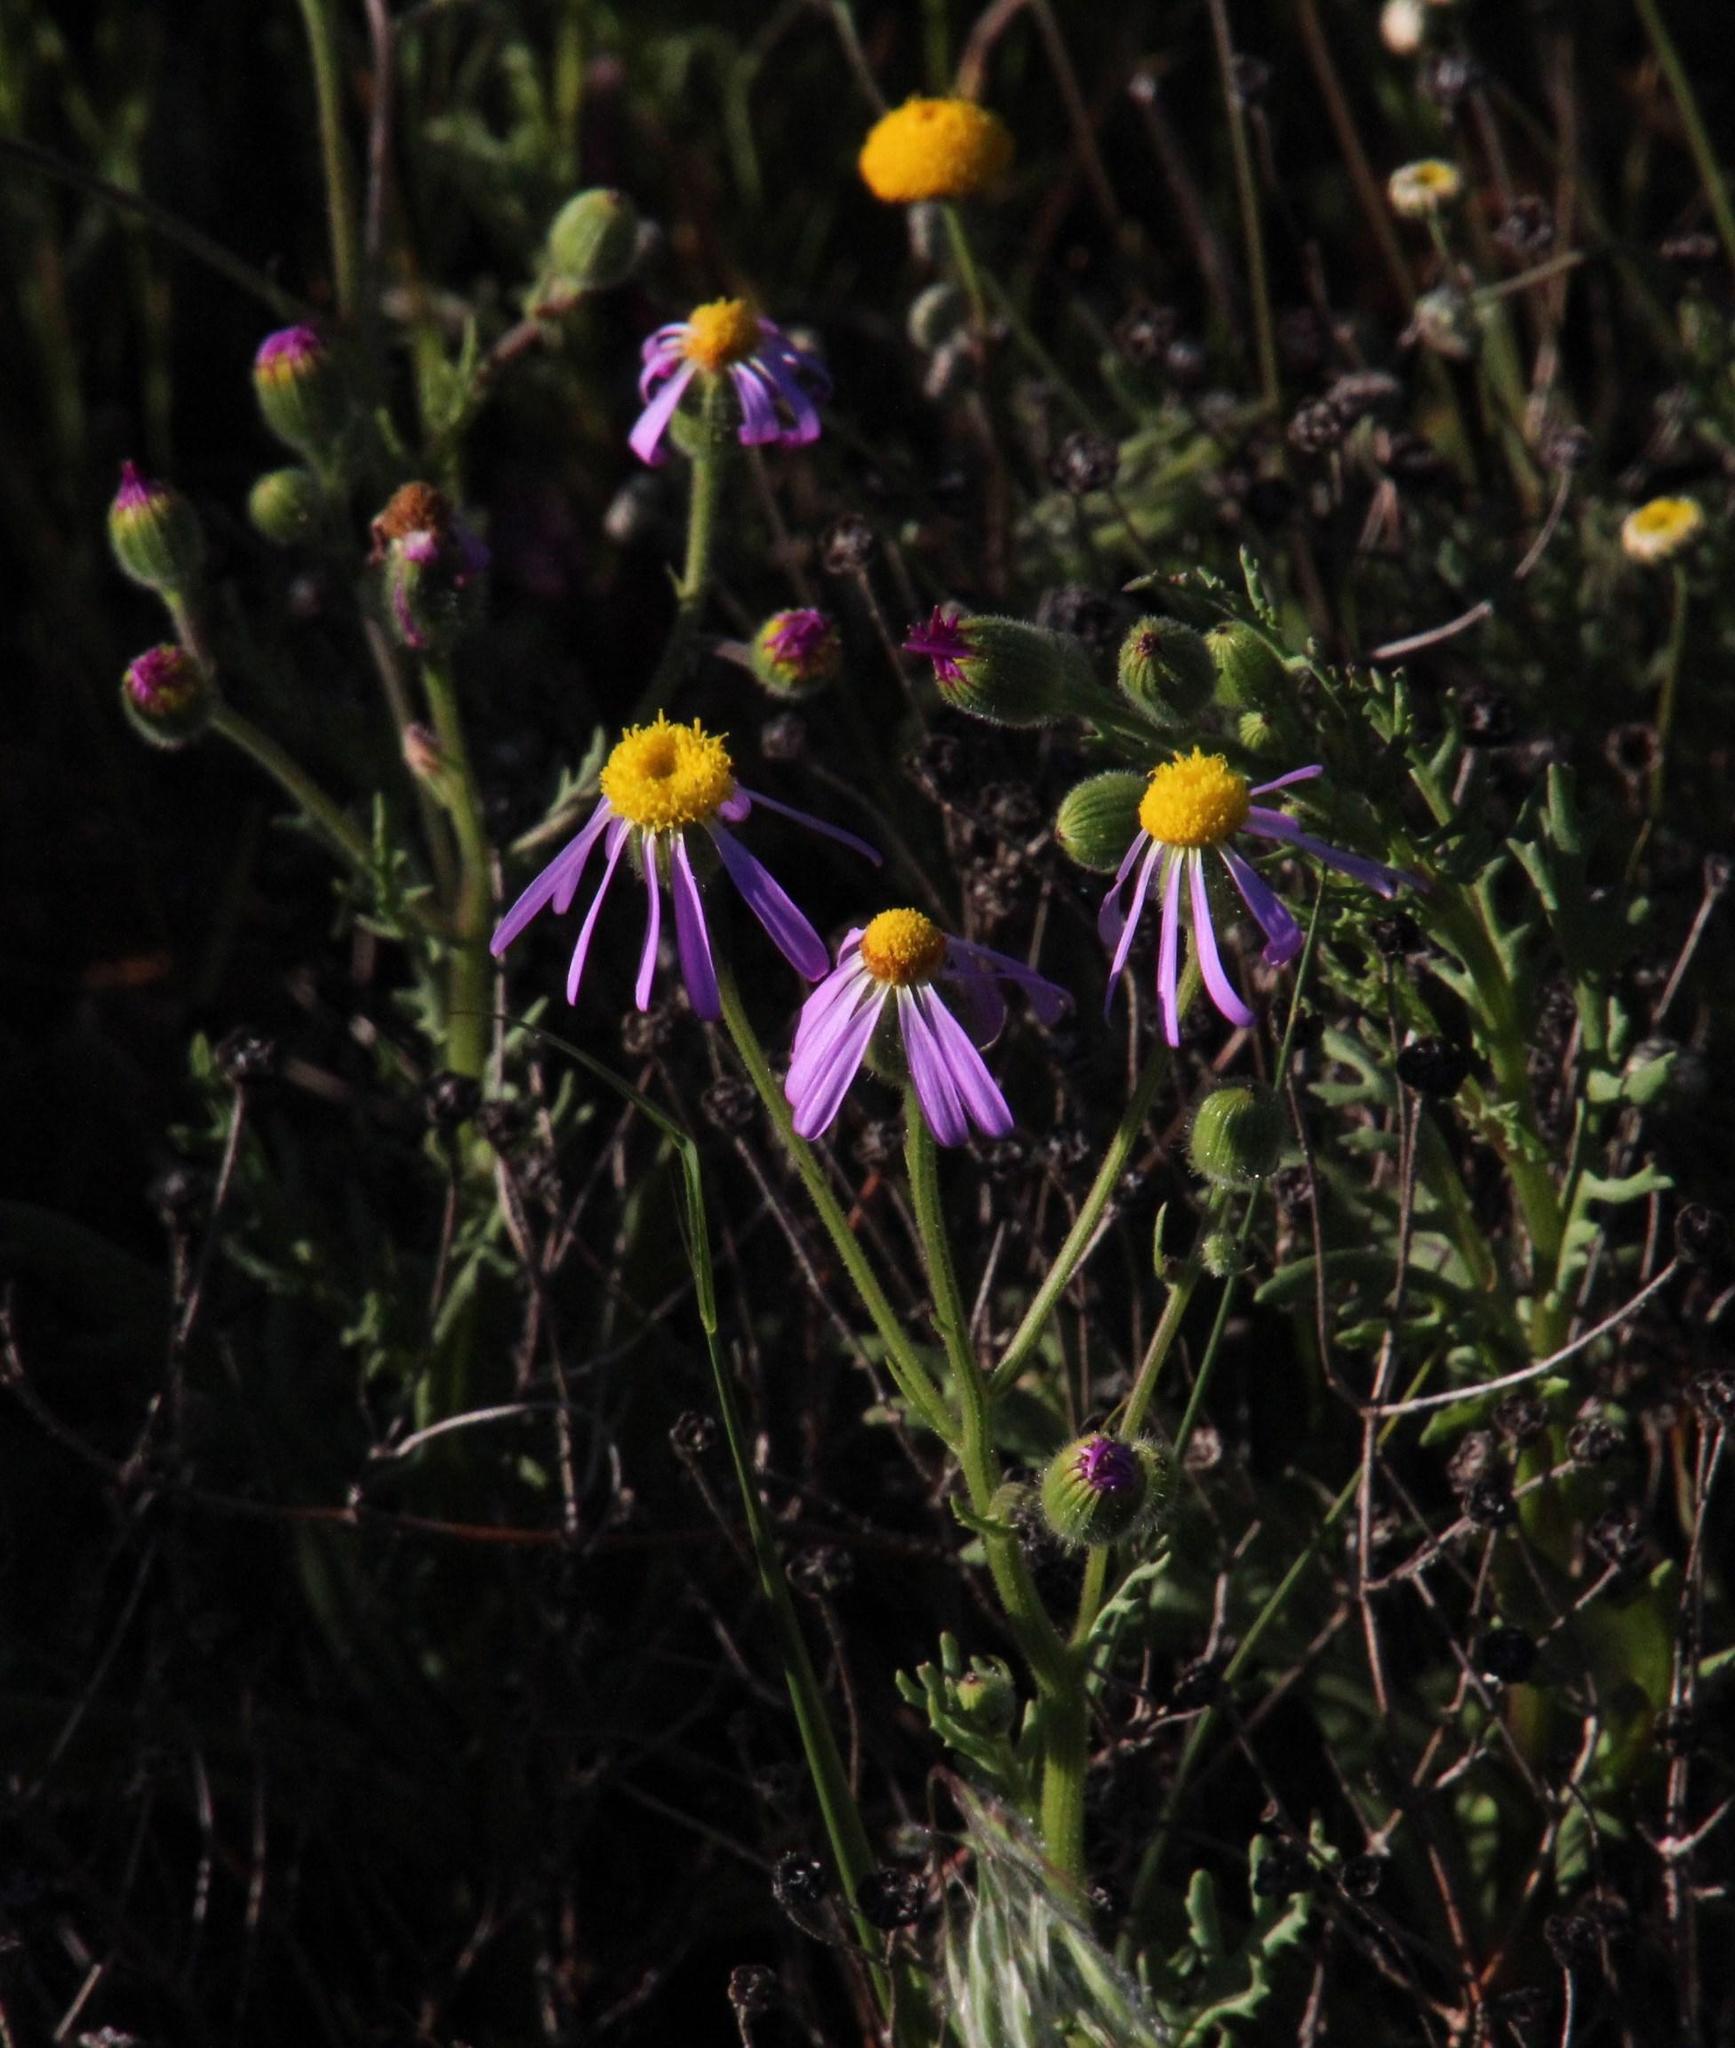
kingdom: Plantae
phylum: Tracheophyta
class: Magnoliopsida
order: Asterales
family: Asteraceae
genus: Senecio
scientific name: Senecio arenarius
